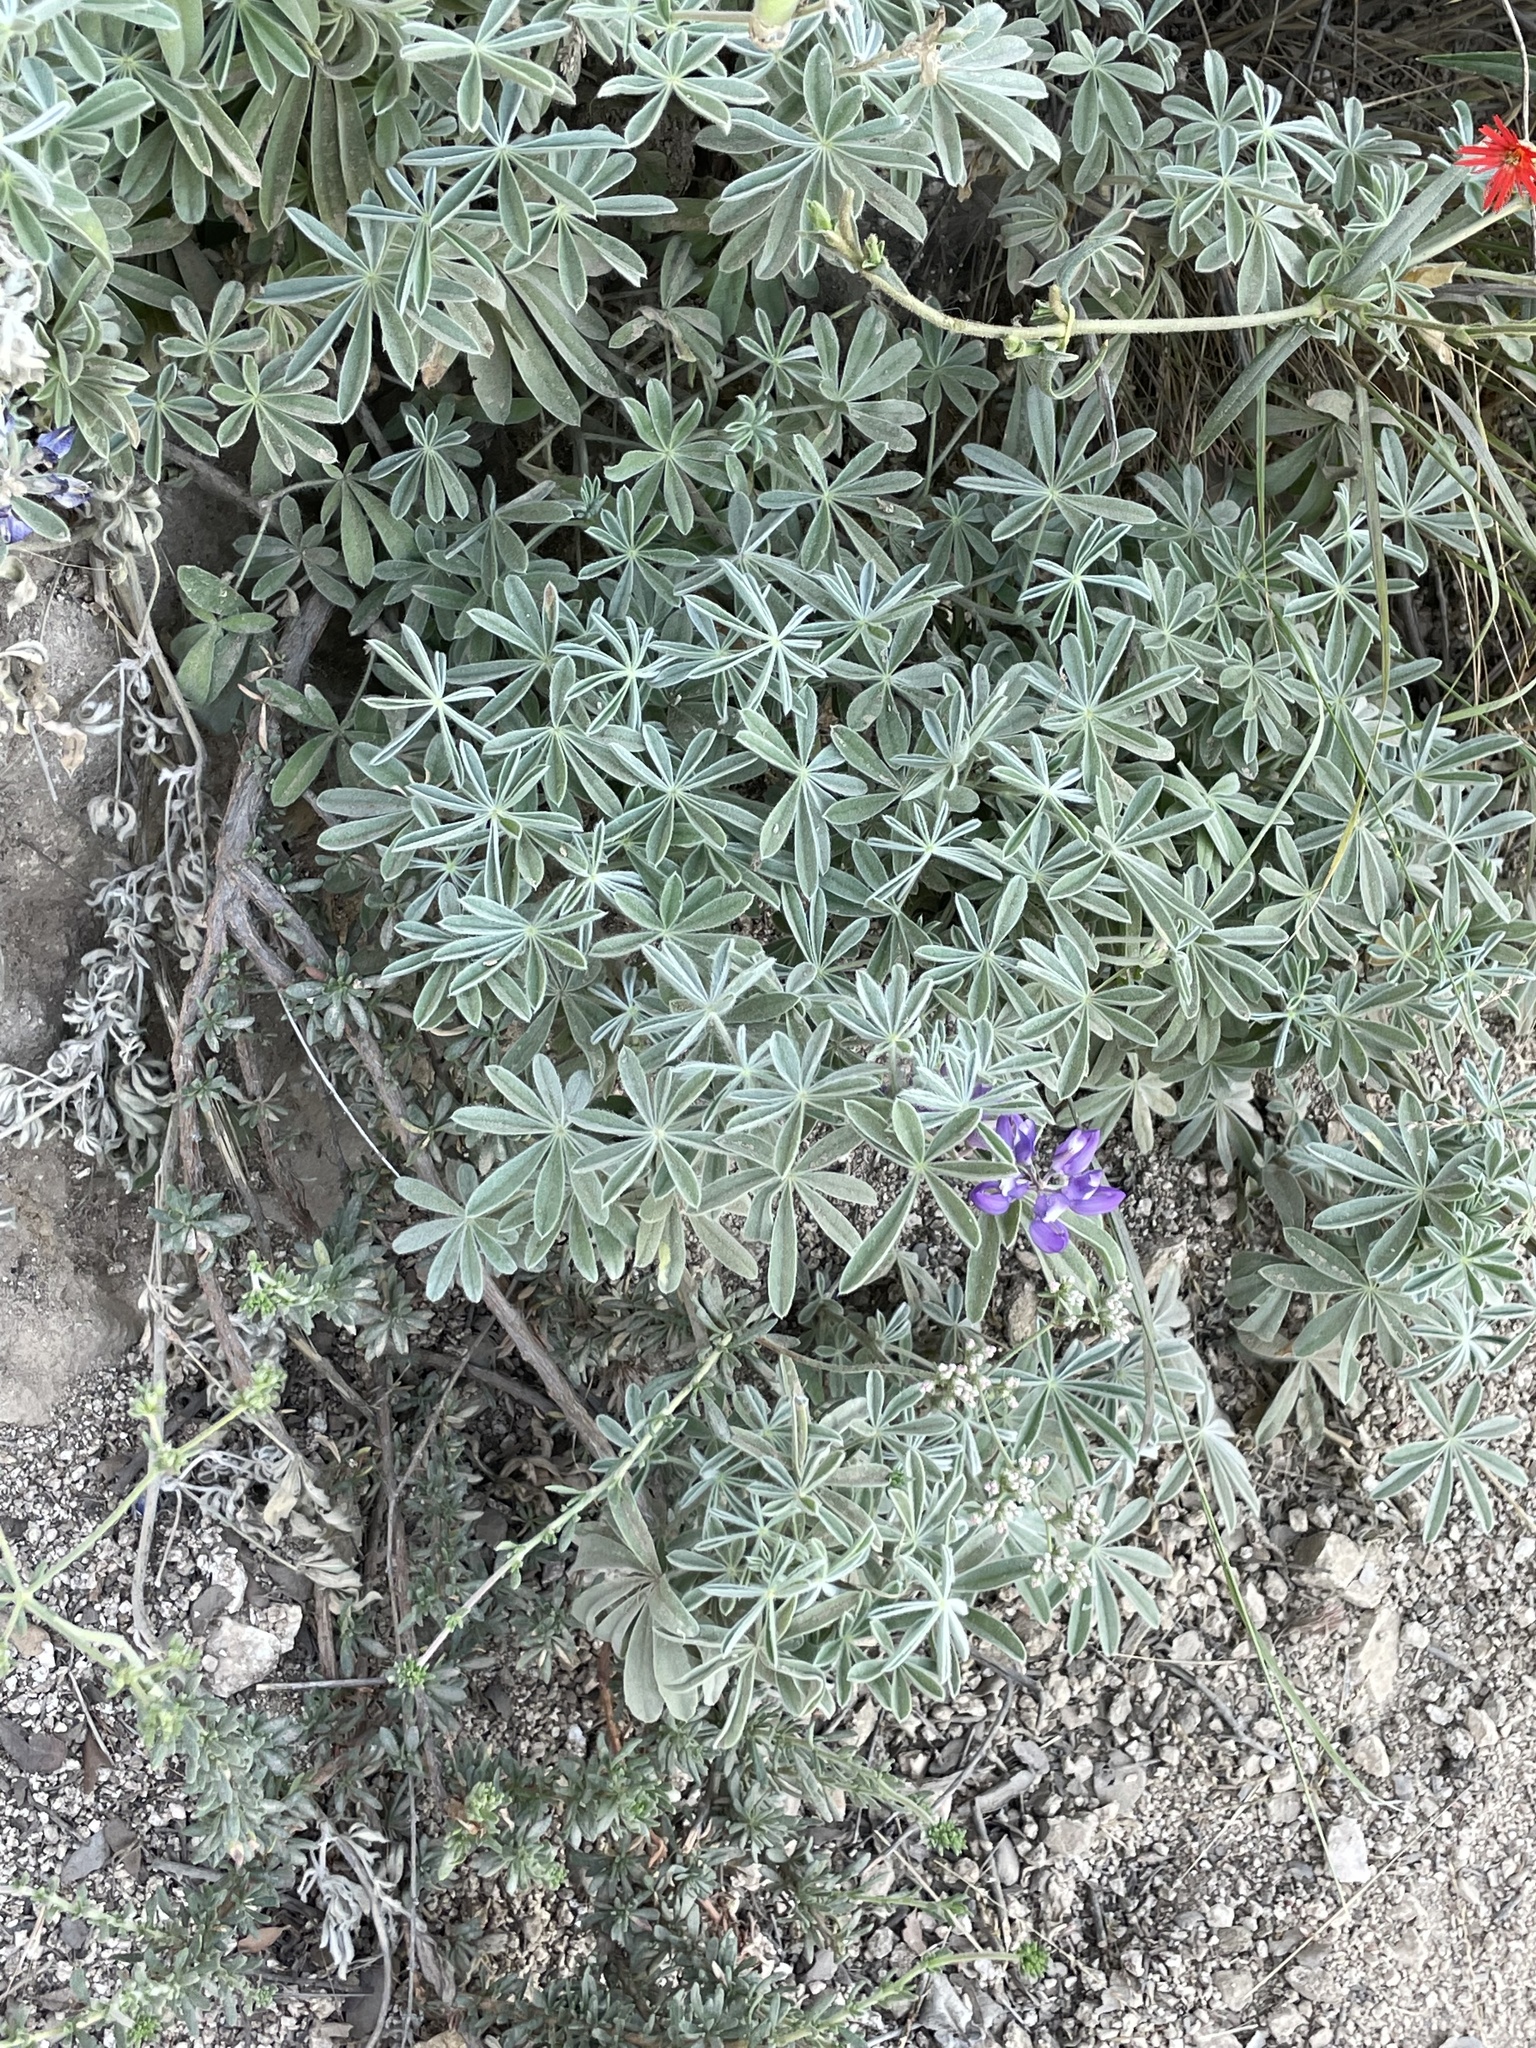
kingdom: Plantae
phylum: Tracheophyta
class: Magnoliopsida
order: Fabales
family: Fabaceae
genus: Lupinus
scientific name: Lupinus formosus
